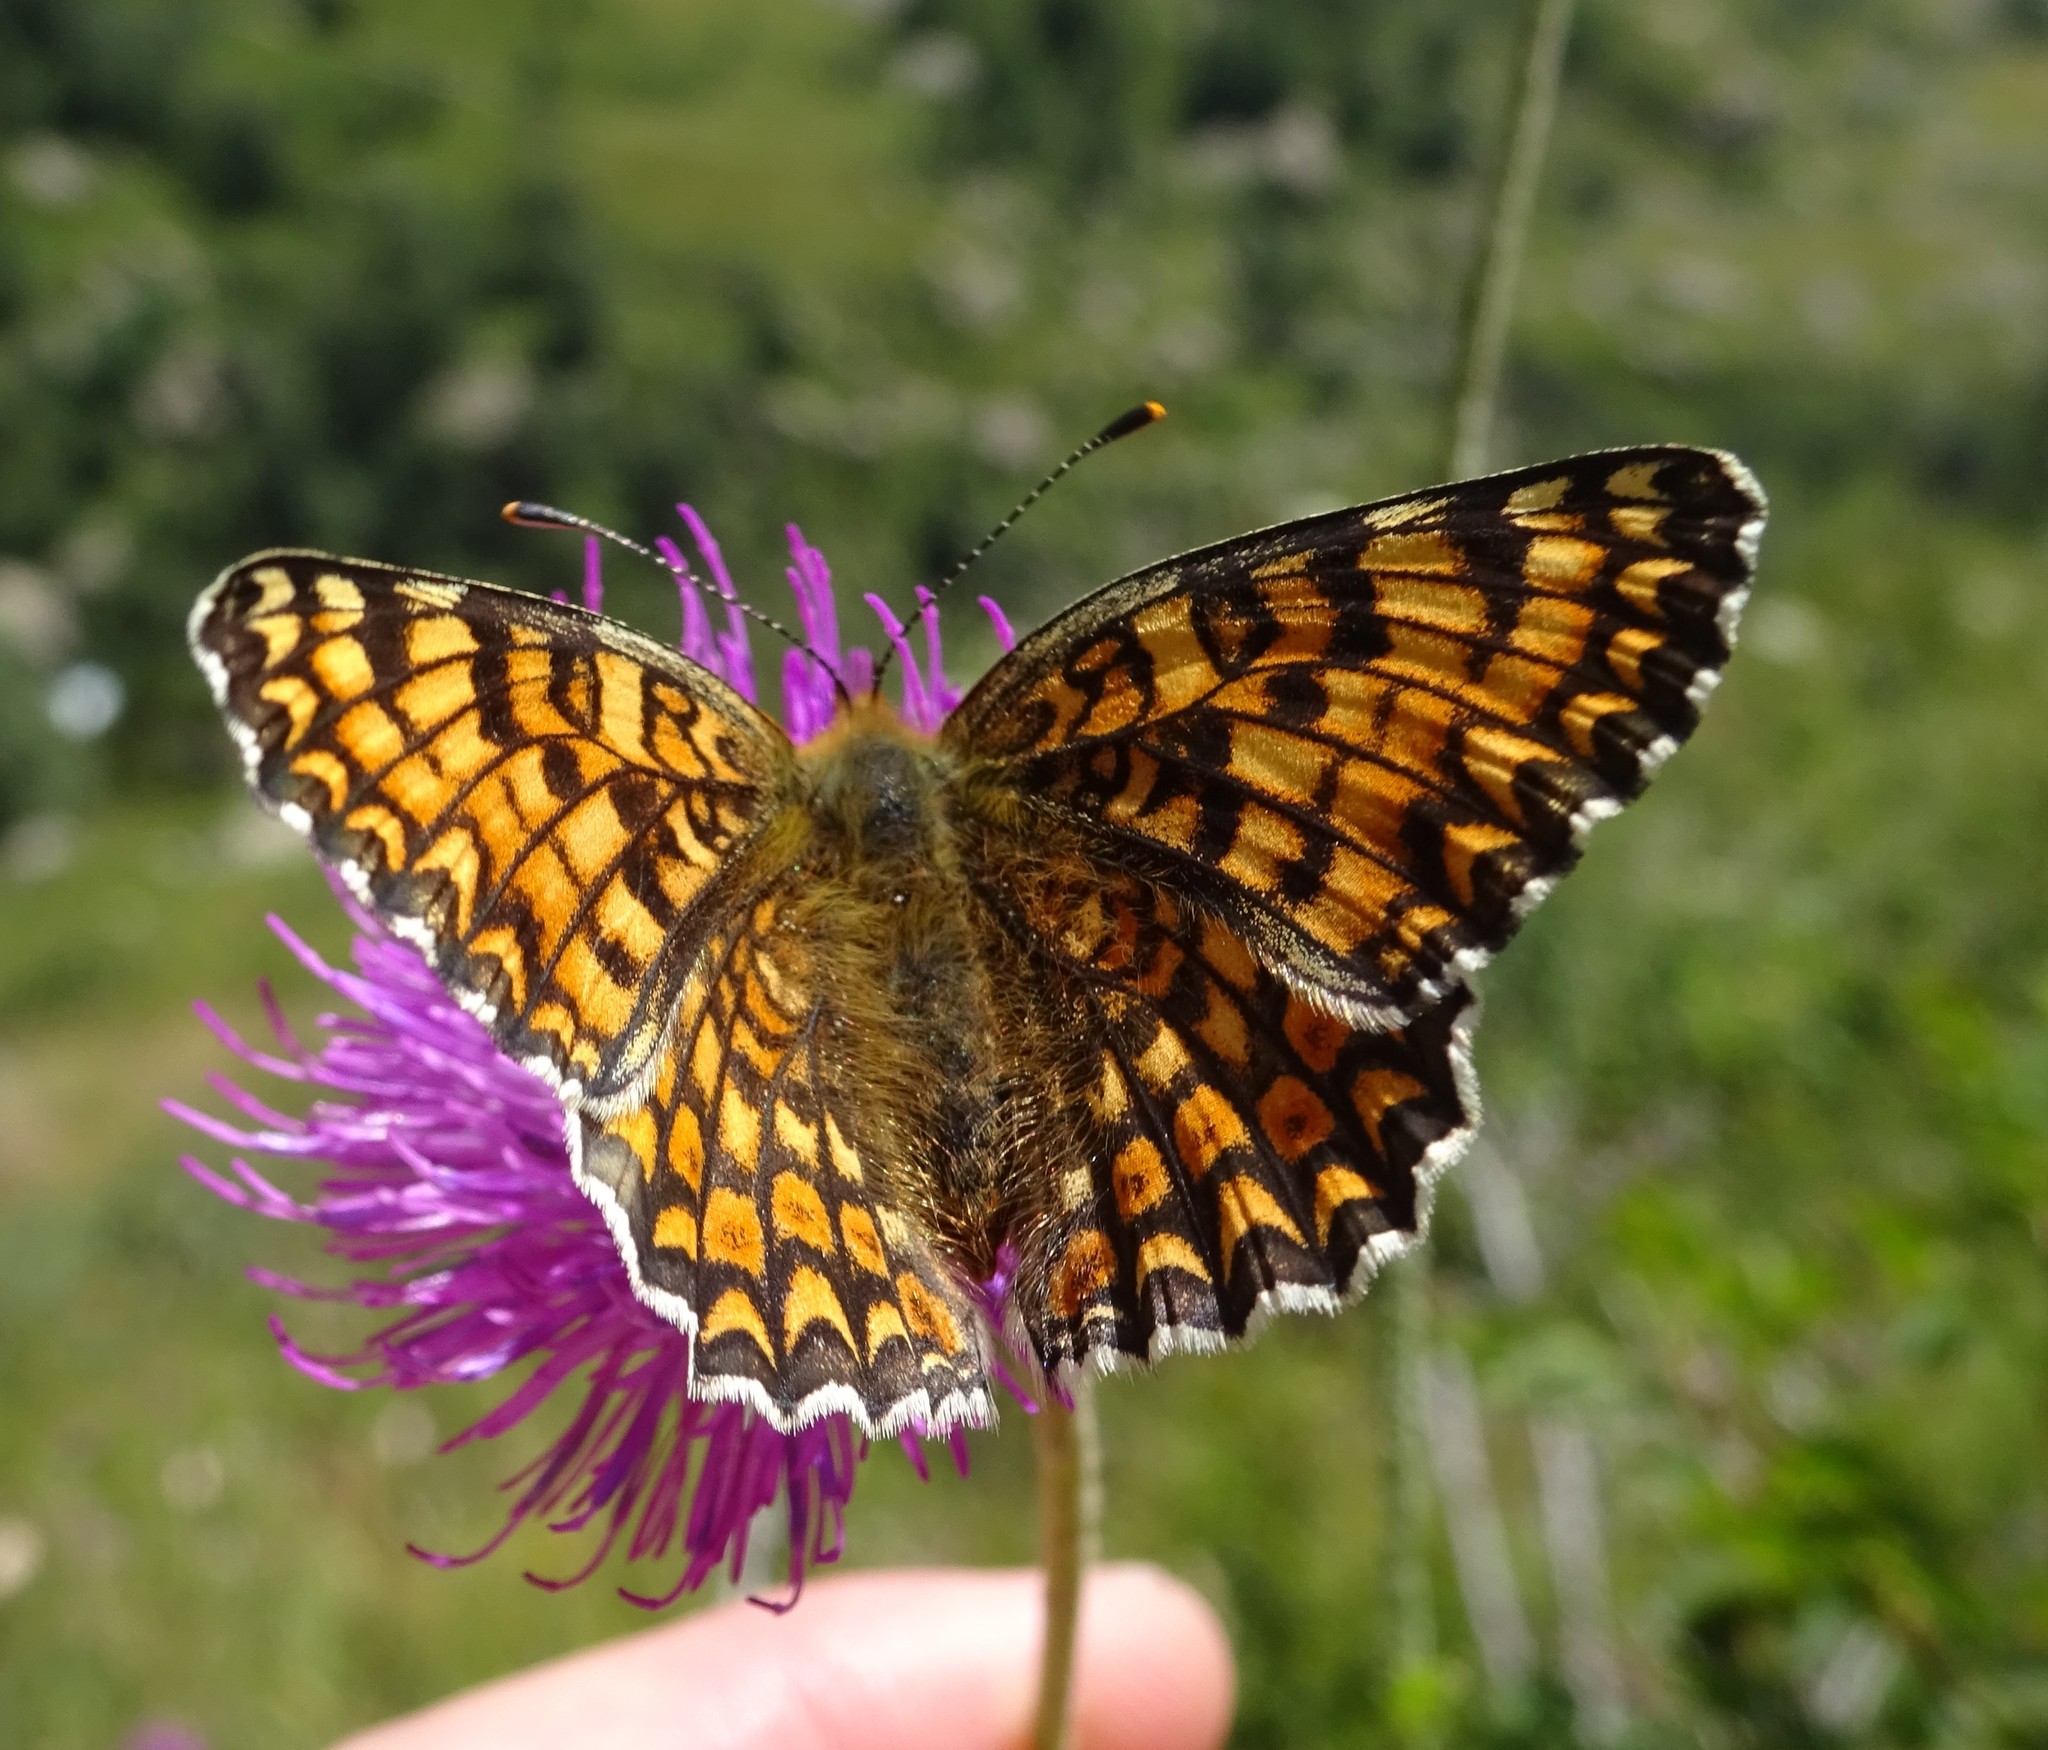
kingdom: Animalia
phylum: Arthropoda
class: Insecta
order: Lepidoptera
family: Nymphalidae
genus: Melitaea
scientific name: Melitaea phoebe
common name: Knapweed fritillary
